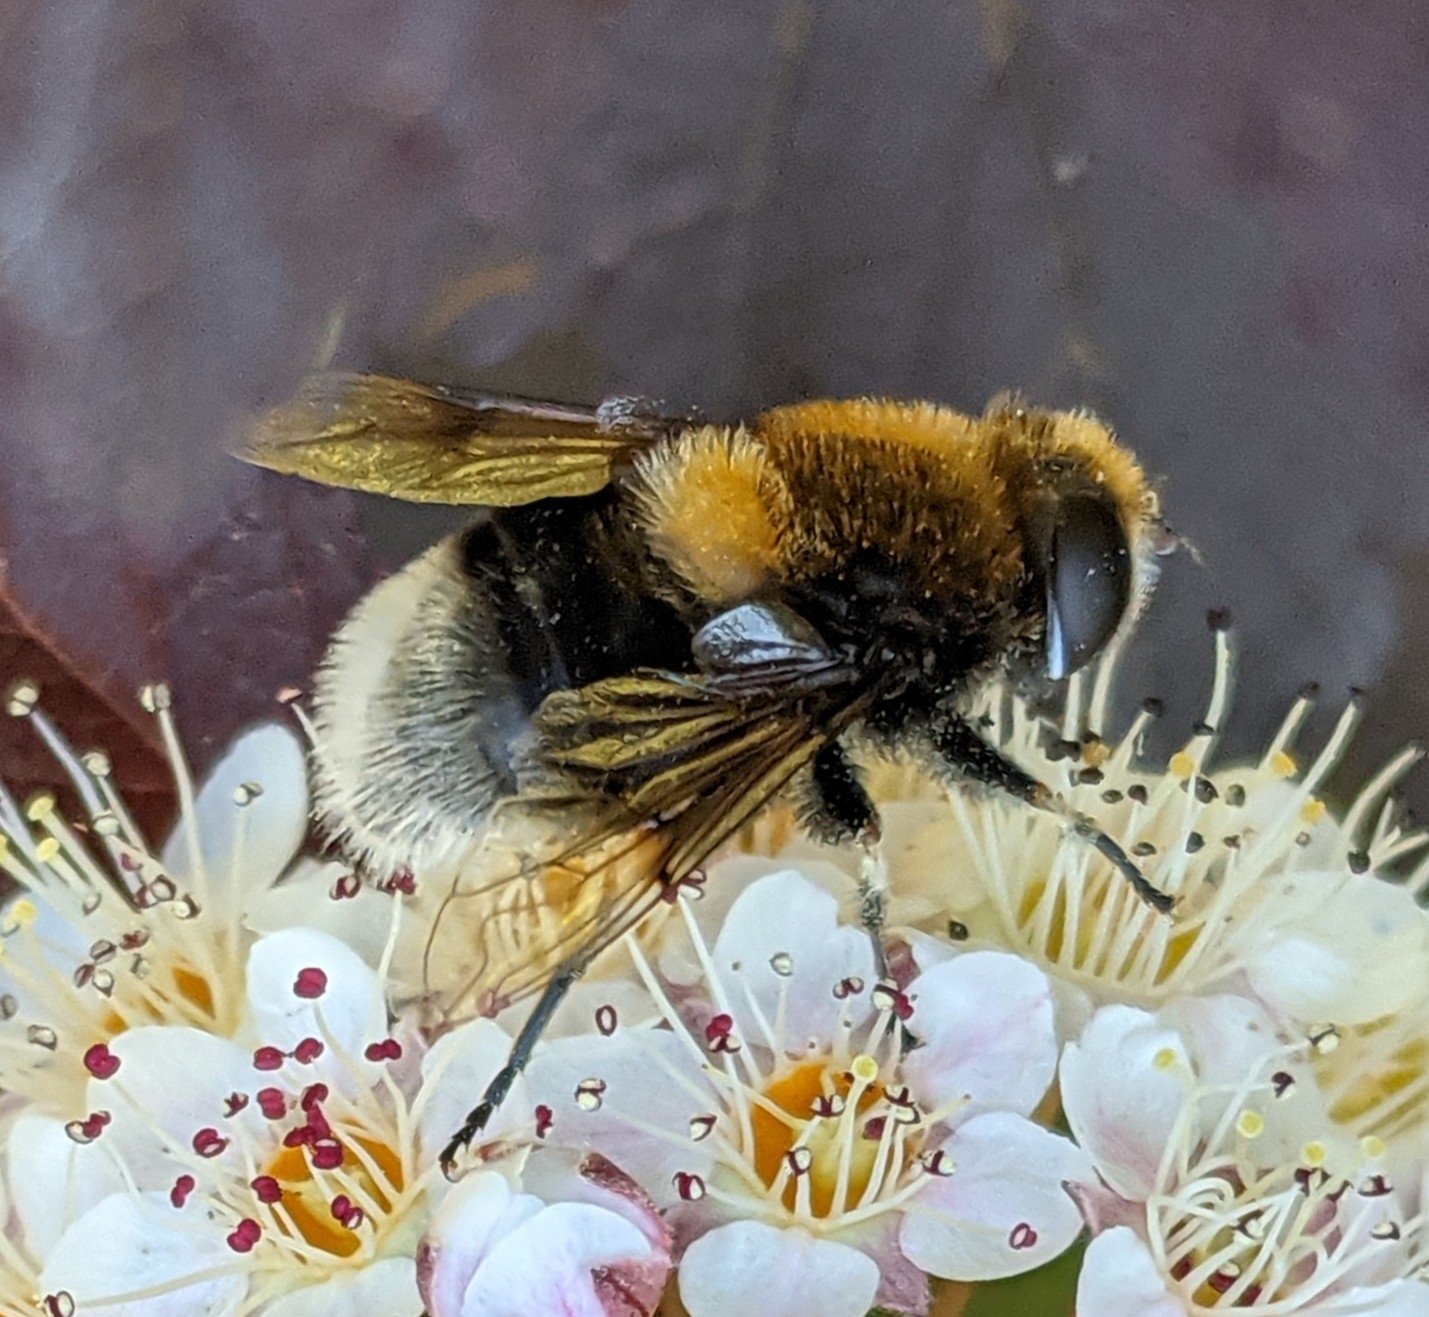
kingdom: Animalia
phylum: Arthropoda
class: Insecta
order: Diptera
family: Syrphidae
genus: Eristalis
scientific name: Eristalis intricaria
